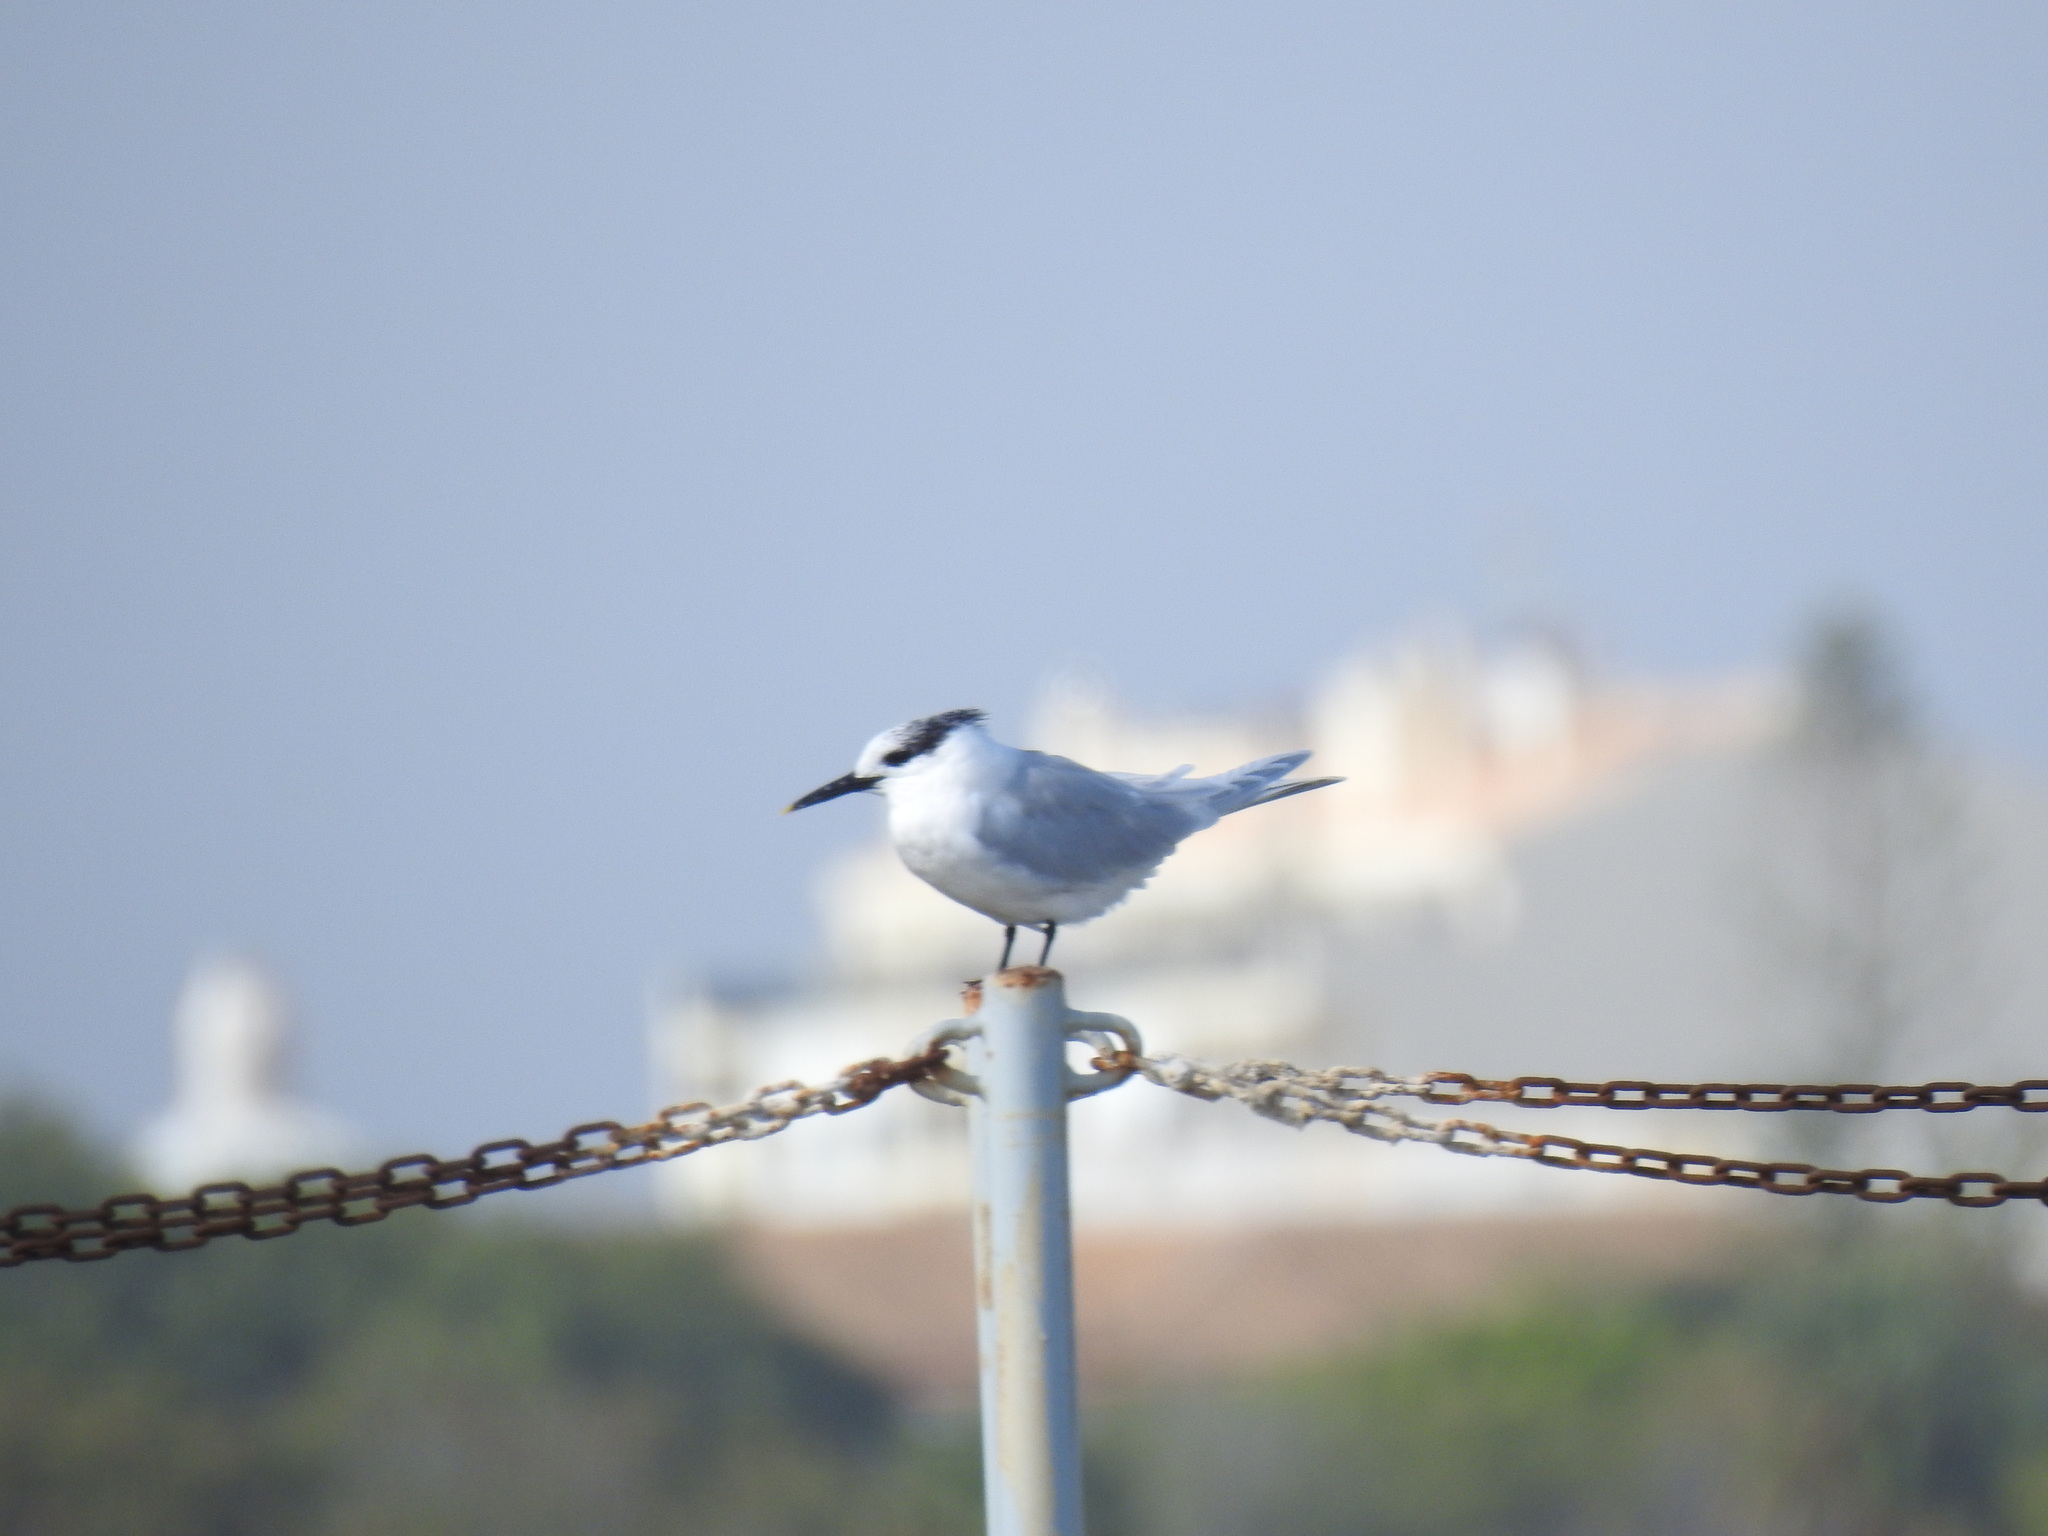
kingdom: Animalia
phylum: Chordata
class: Aves
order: Charadriiformes
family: Laridae
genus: Thalasseus
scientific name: Thalasseus sandvicensis
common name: Sandwich tern
